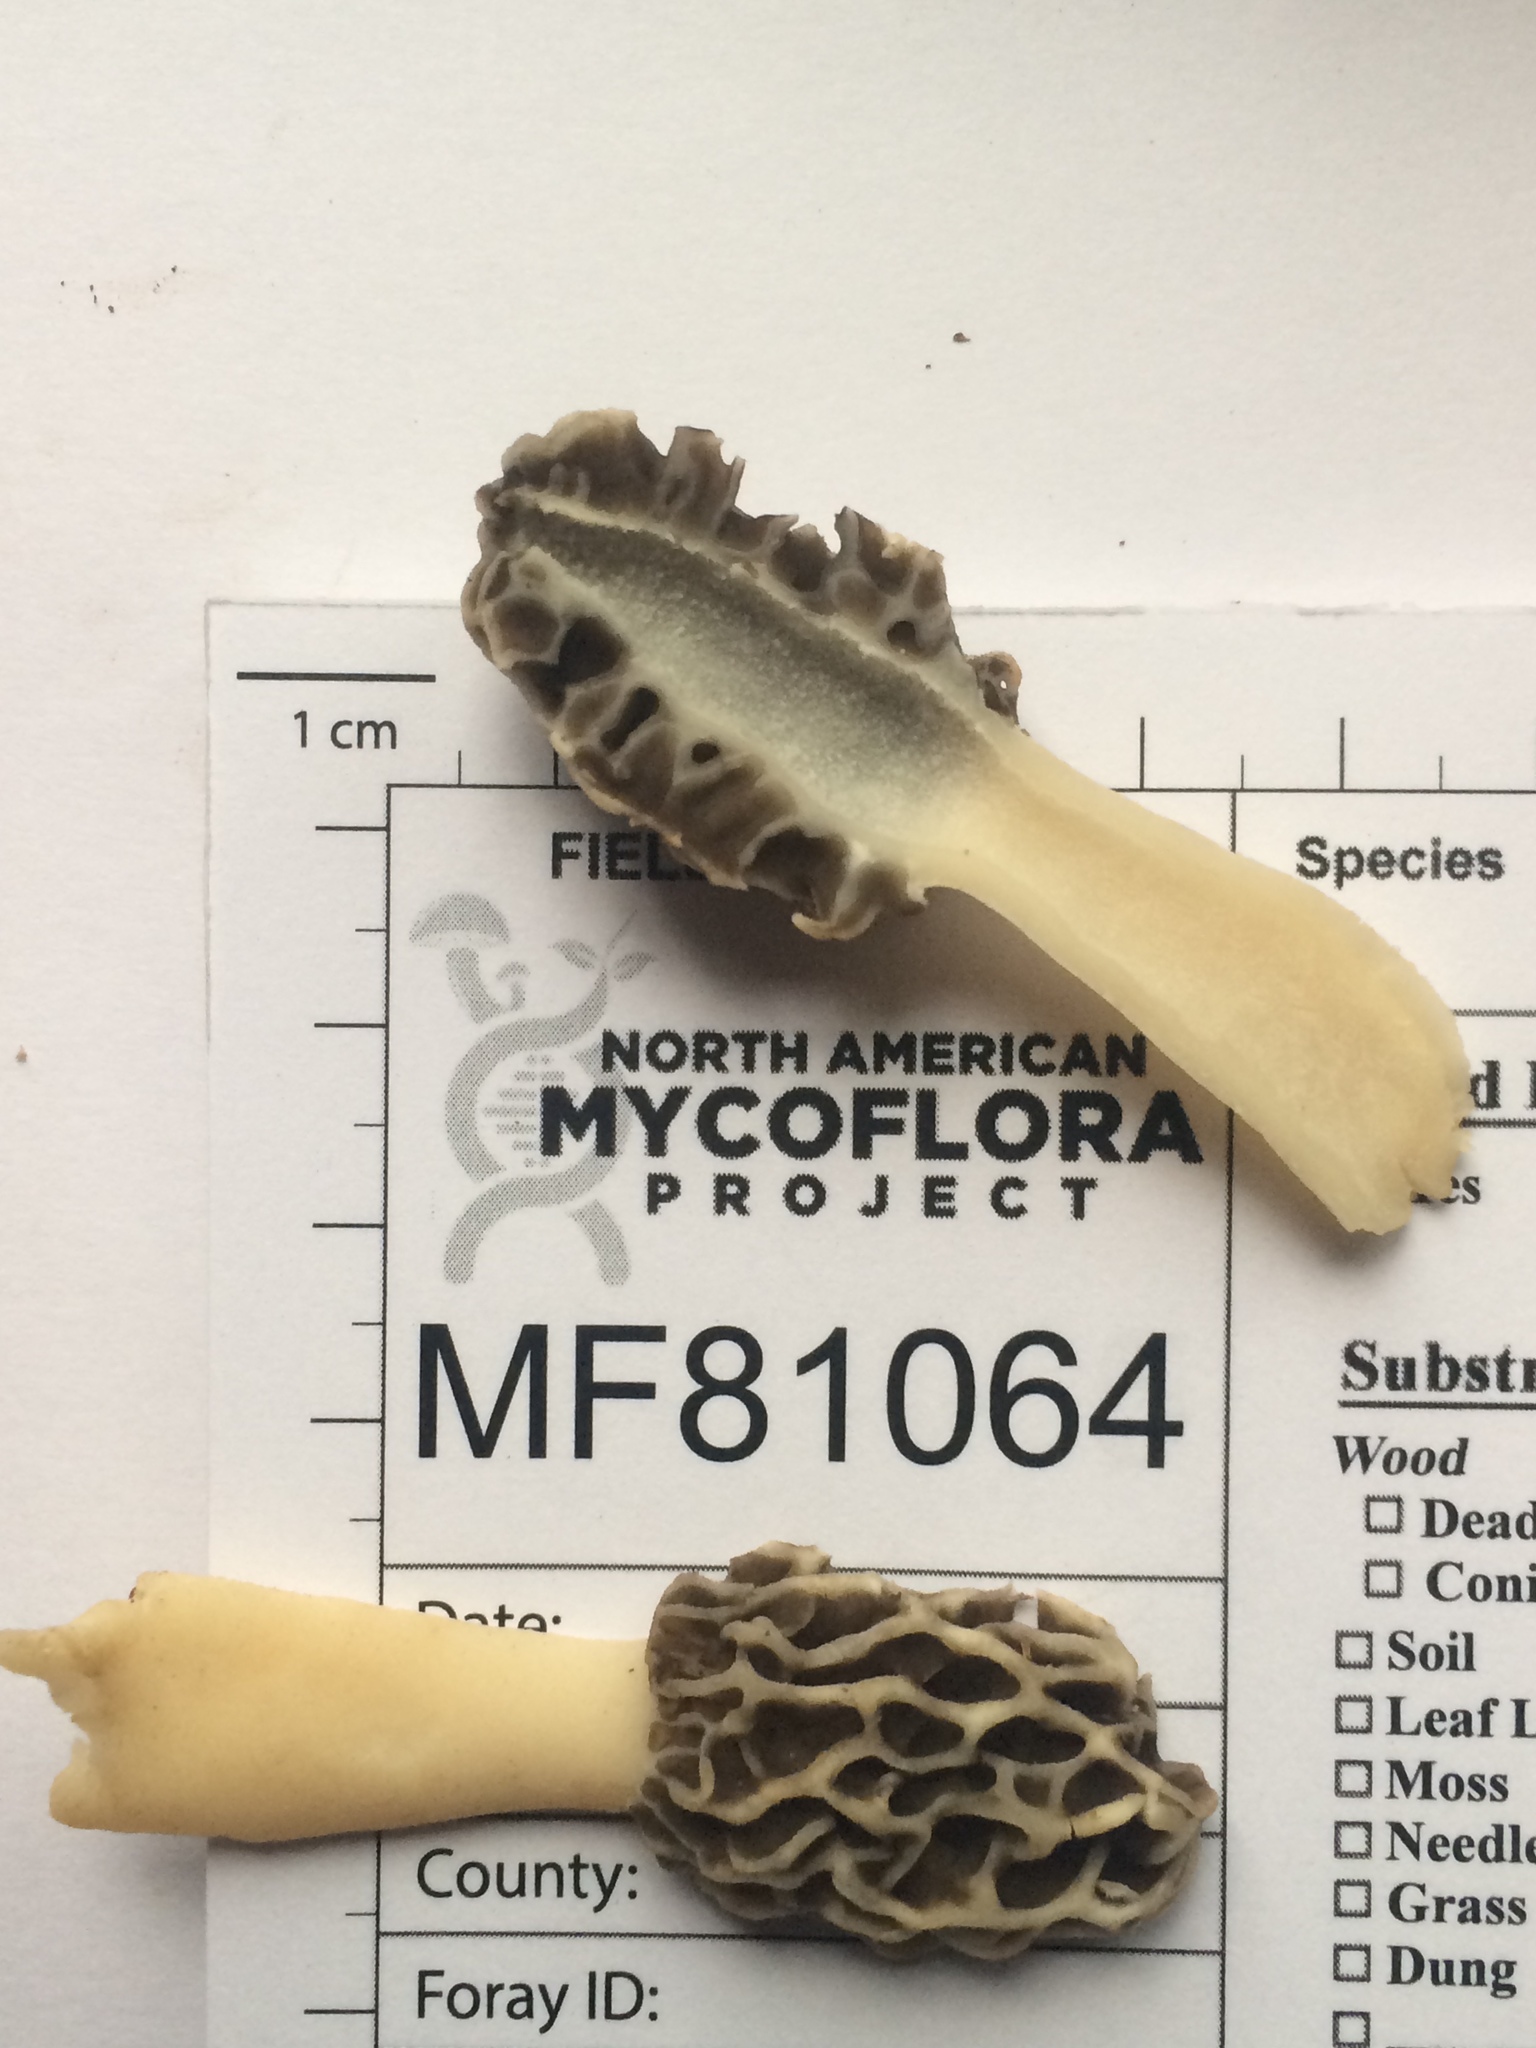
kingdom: Fungi
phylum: Ascomycota
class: Pezizomycetes
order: Pezizales
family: Morchellaceae
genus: Morchella
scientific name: Morchella americana
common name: White morel
